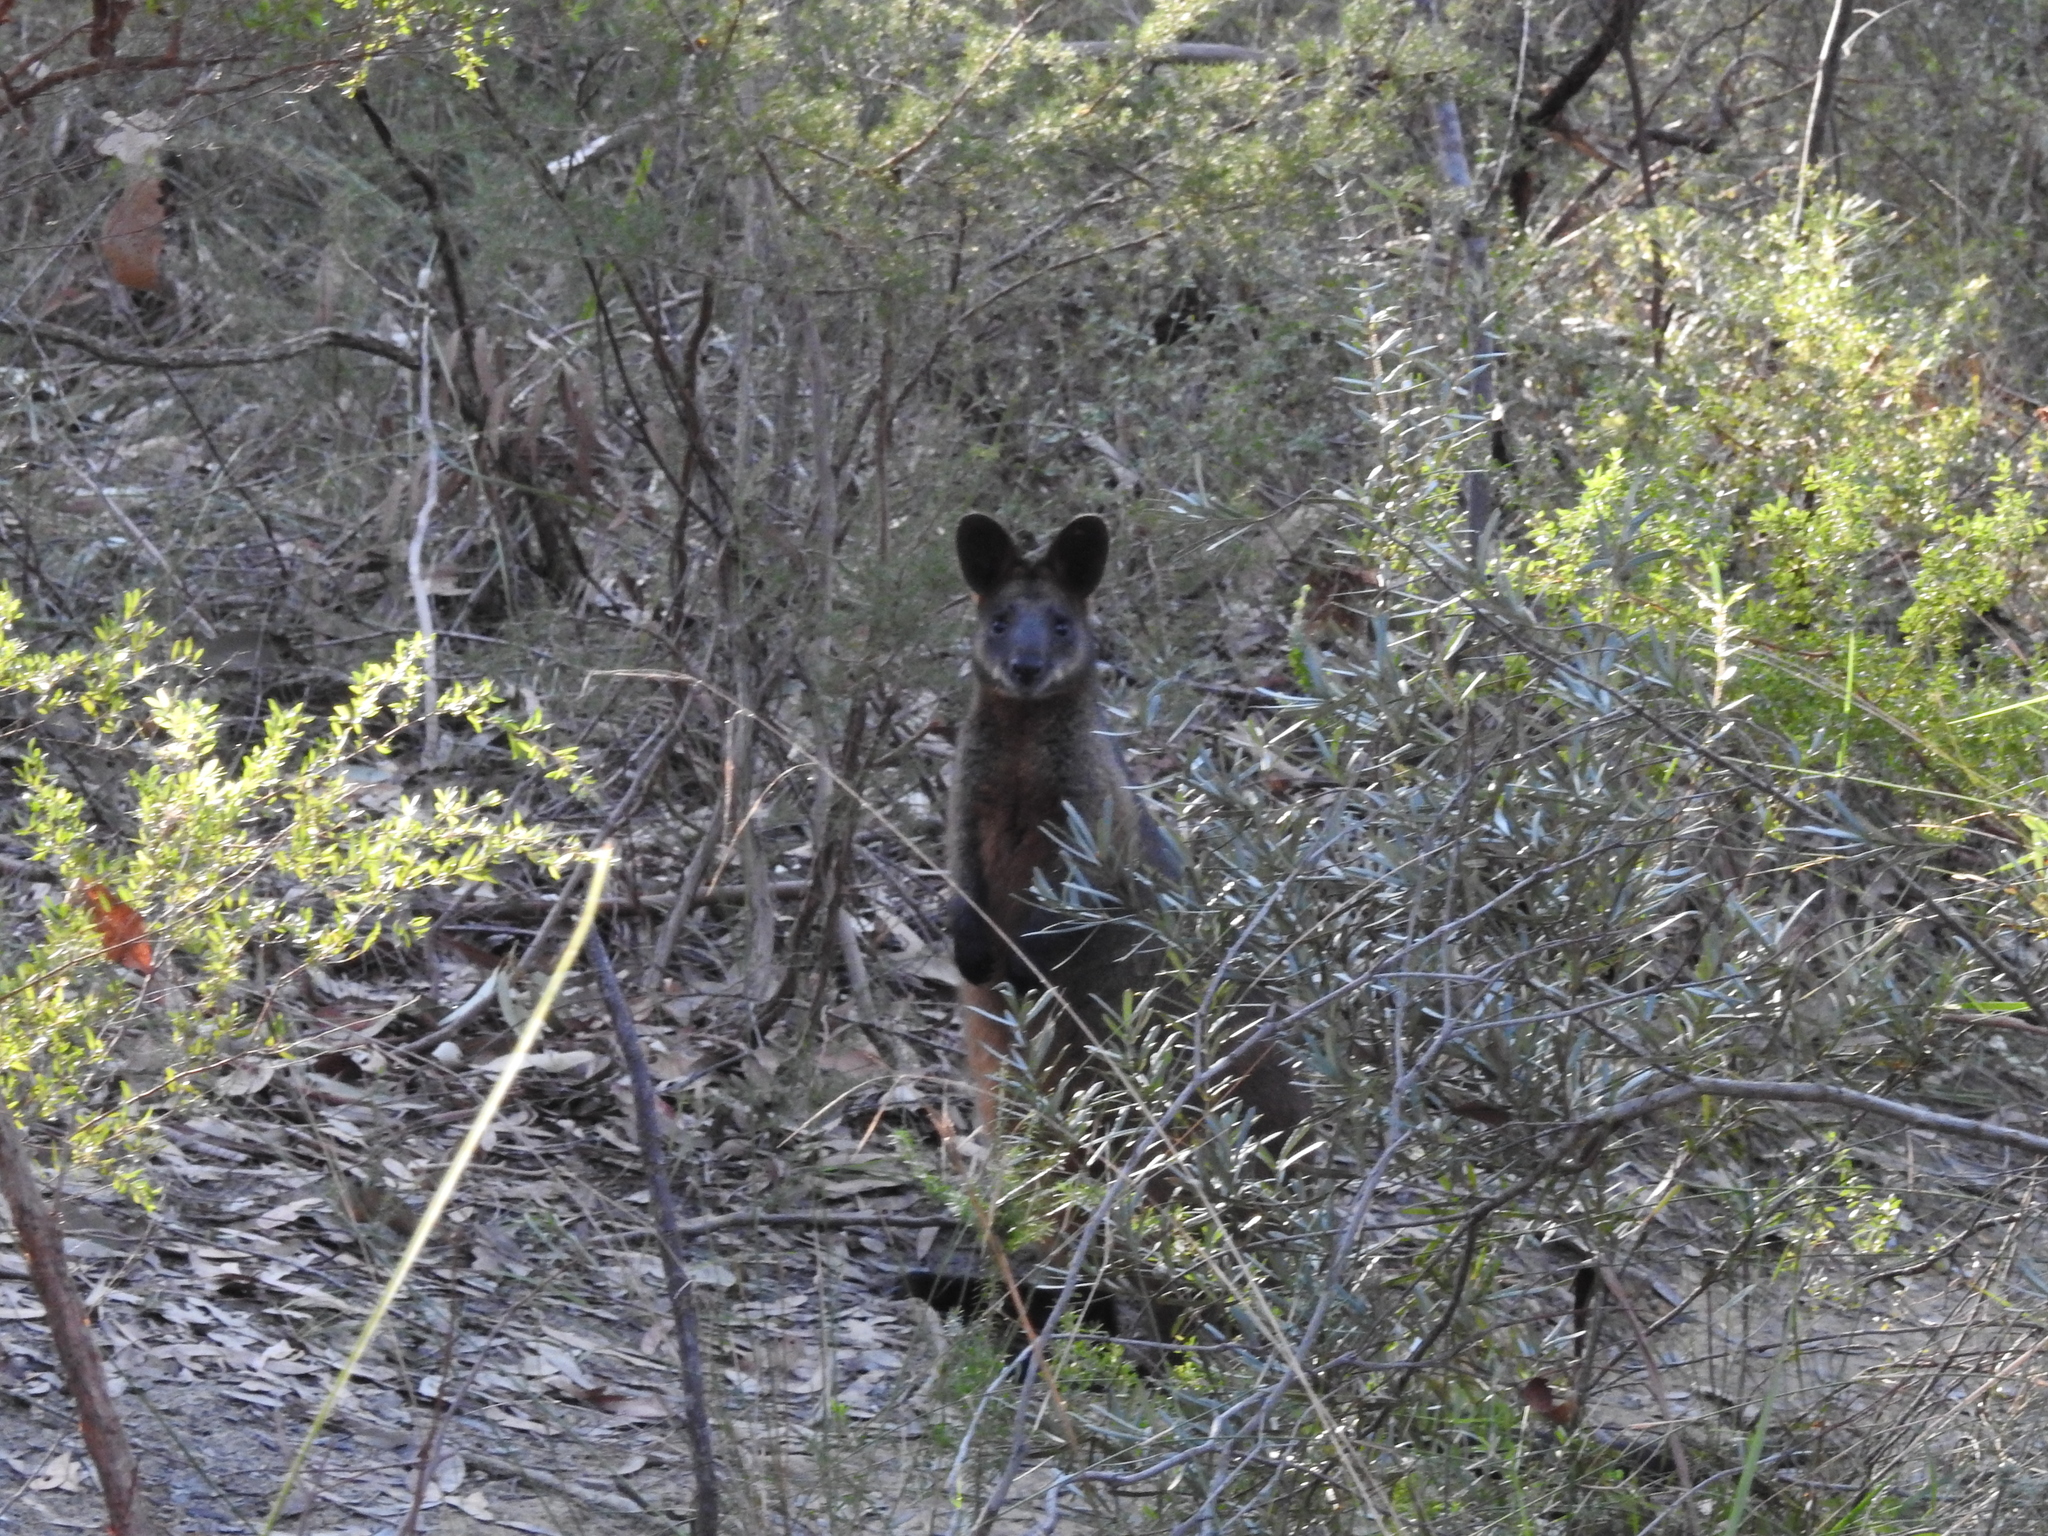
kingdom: Animalia
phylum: Chordata
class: Mammalia
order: Diprotodontia
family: Macropodidae
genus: Wallabia
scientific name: Wallabia bicolor
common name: Swamp wallaby
